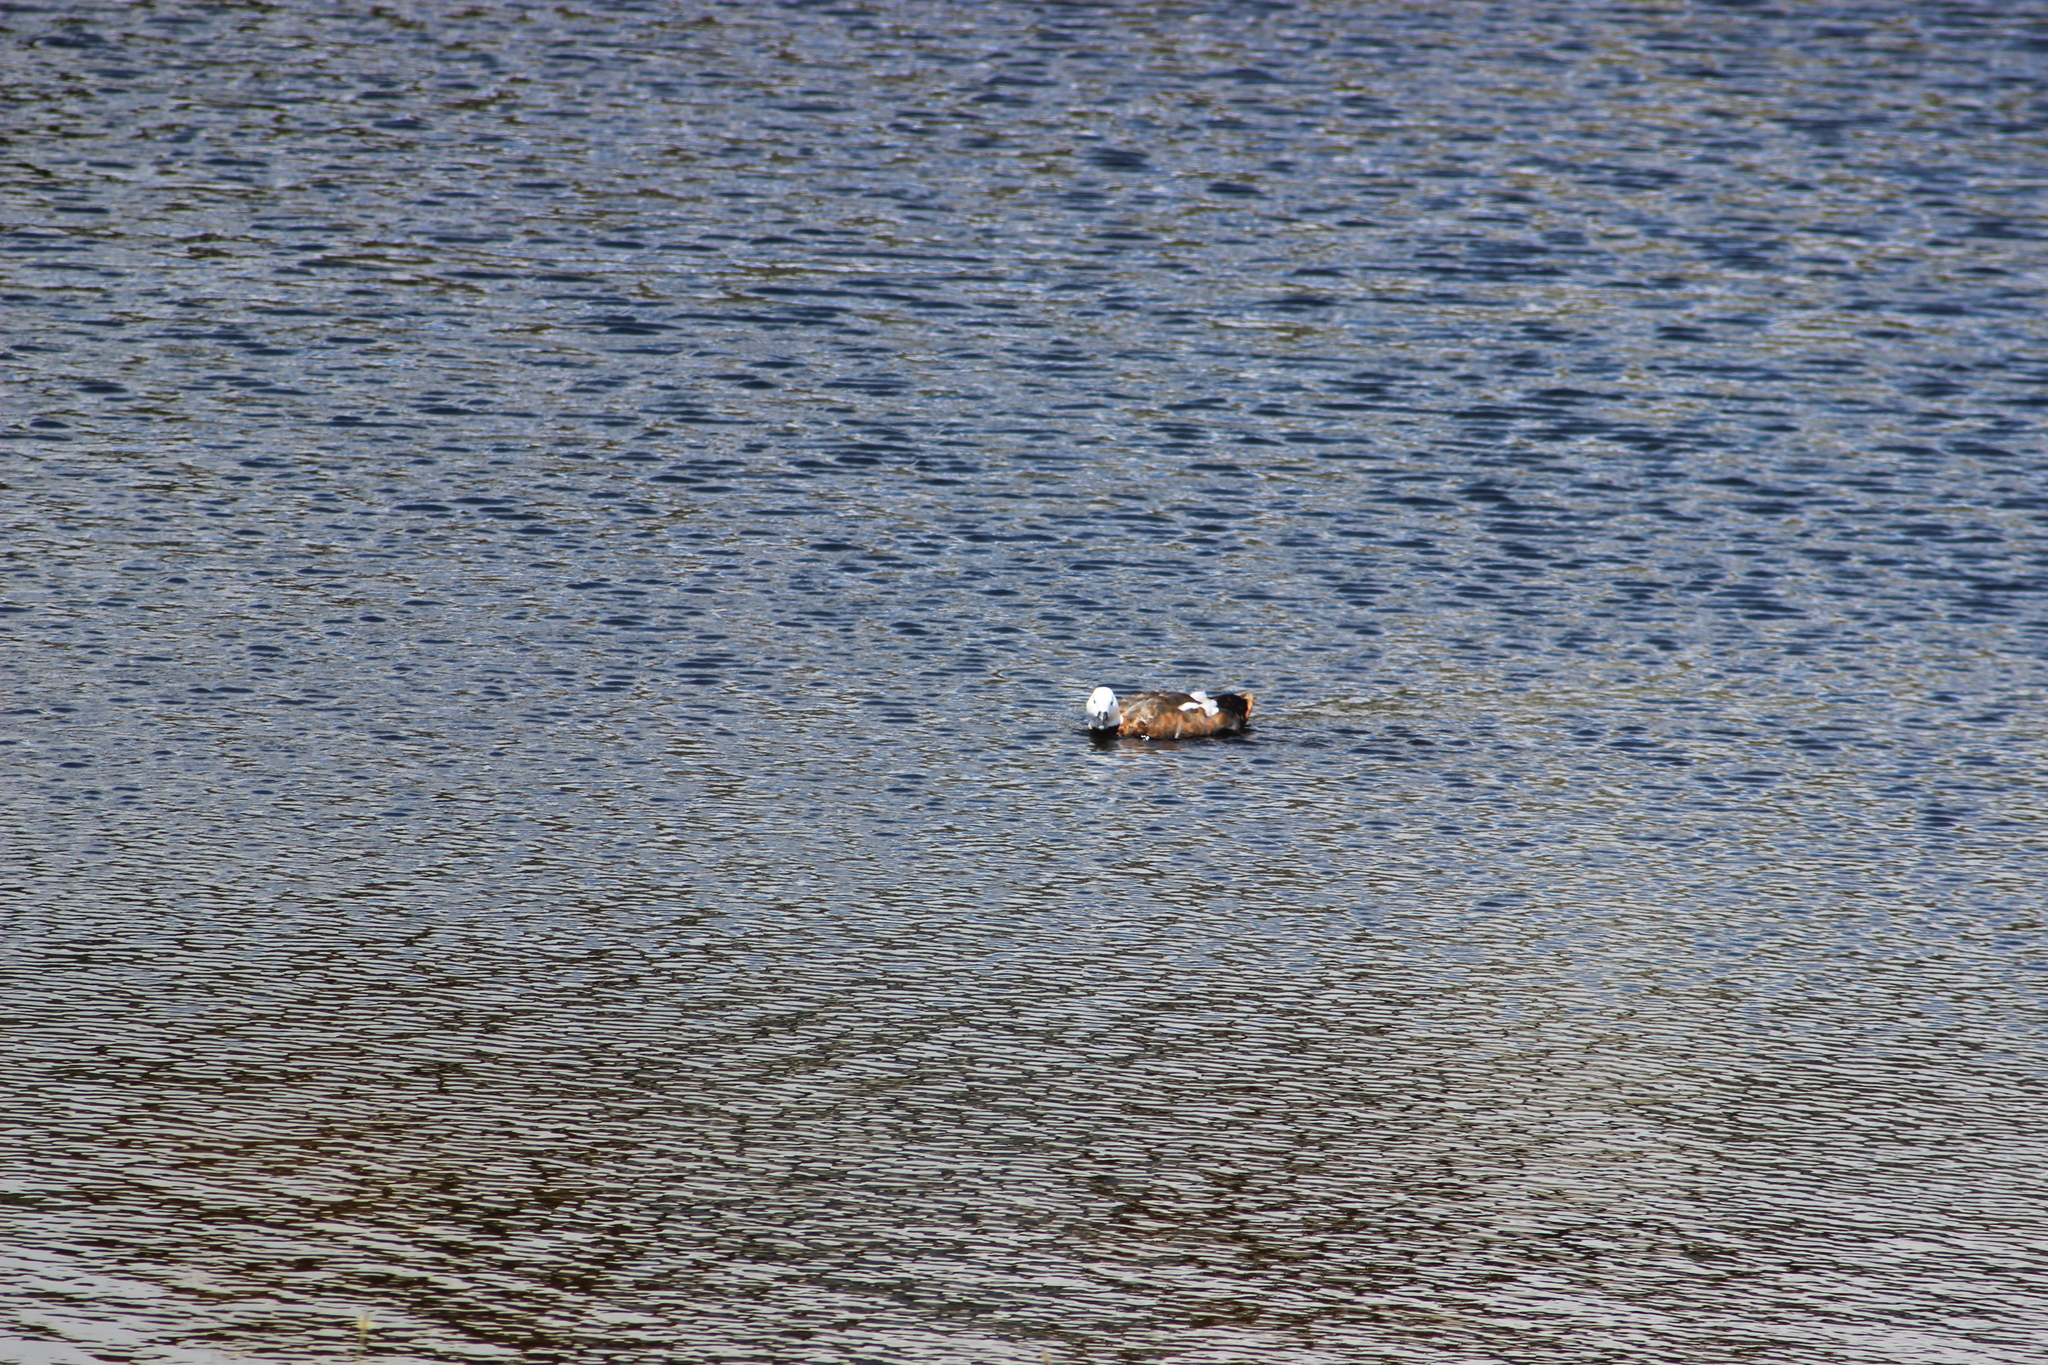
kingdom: Animalia
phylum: Chordata
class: Aves
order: Anseriformes
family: Anatidae
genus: Tadorna
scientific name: Tadorna variegata
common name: Paradise shelduck
